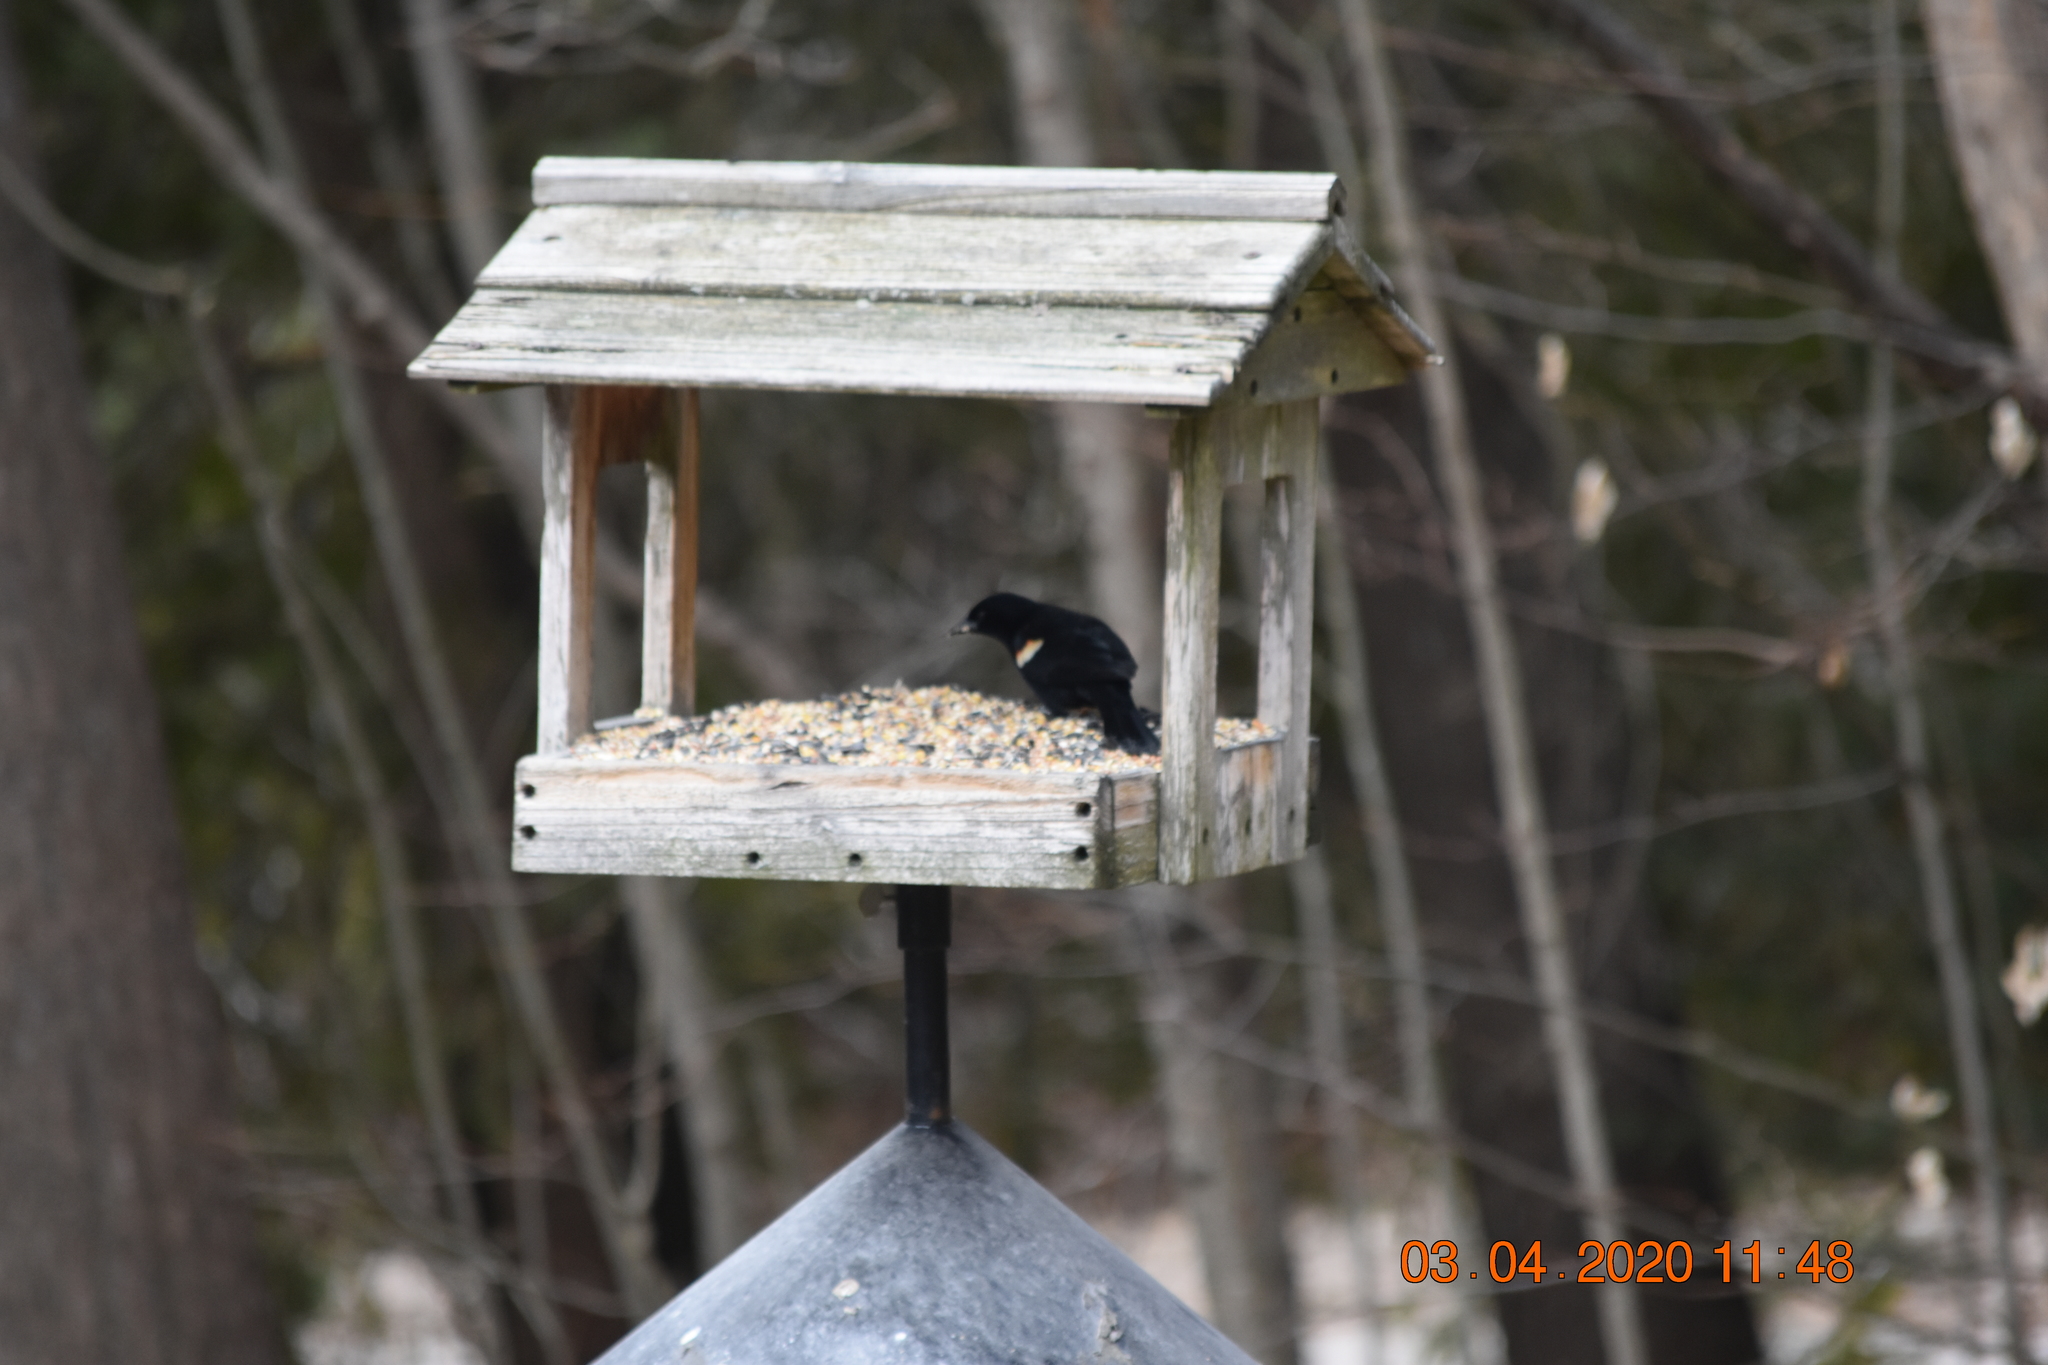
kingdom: Animalia
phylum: Chordata
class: Aves
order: Passeriformes
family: Icteridae
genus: Agelaius
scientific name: Agelaius phoeniceus
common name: Red-winged blackbird
